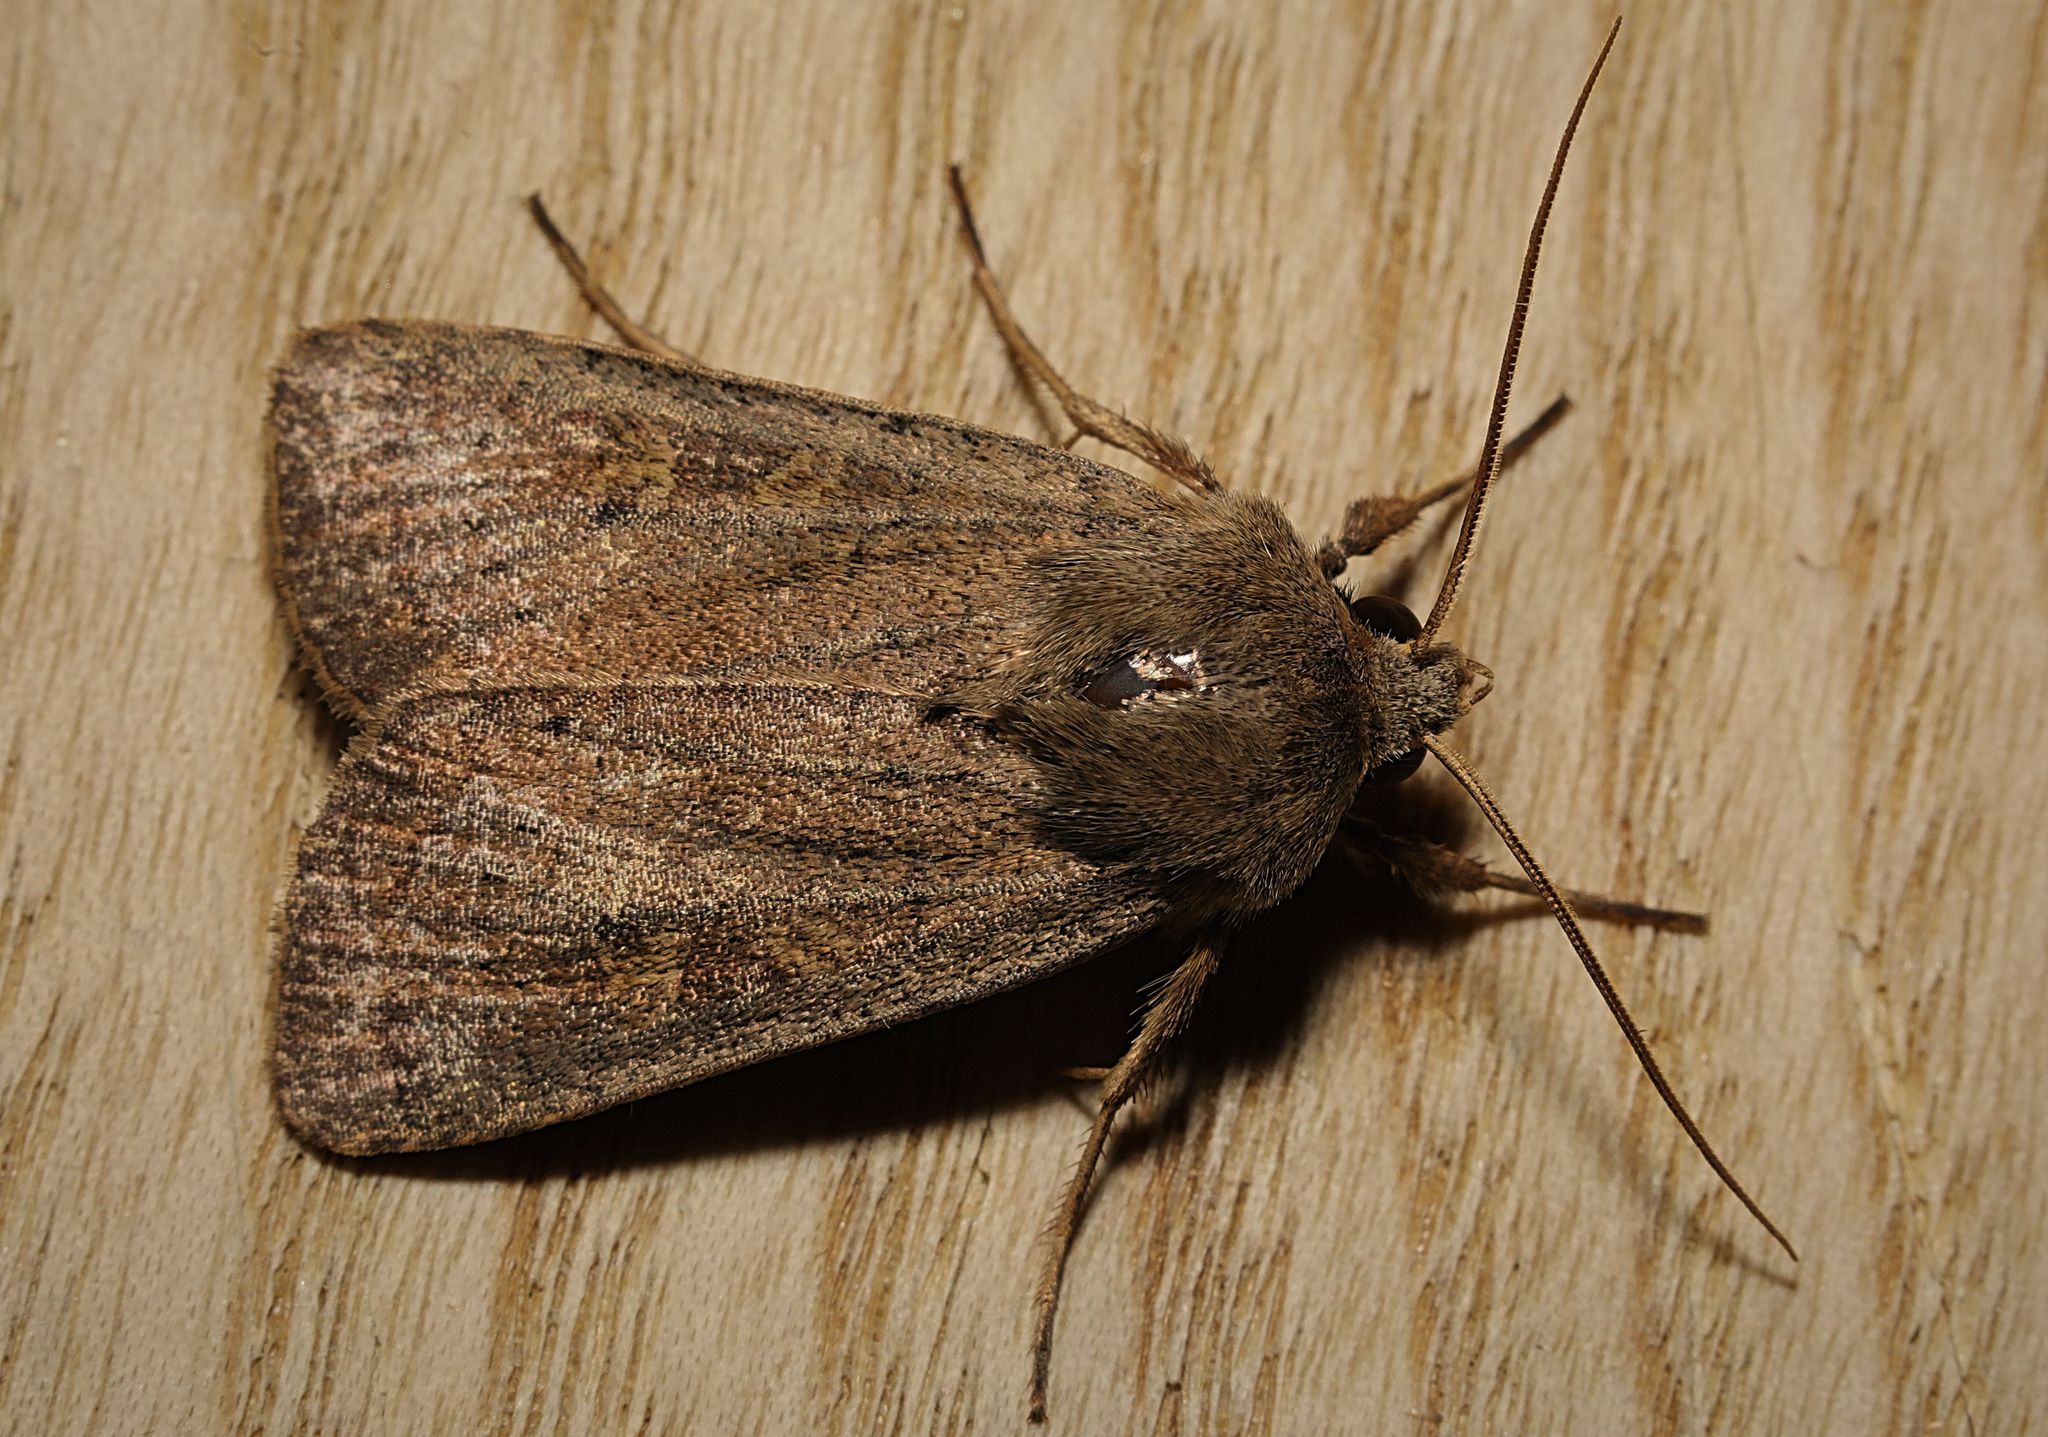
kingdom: Animalia
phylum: Arthropoda
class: Insecta
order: Lepidoptera
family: Noctuidae
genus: Xestia
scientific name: Xestia xanthographa
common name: Square-spot rustic
